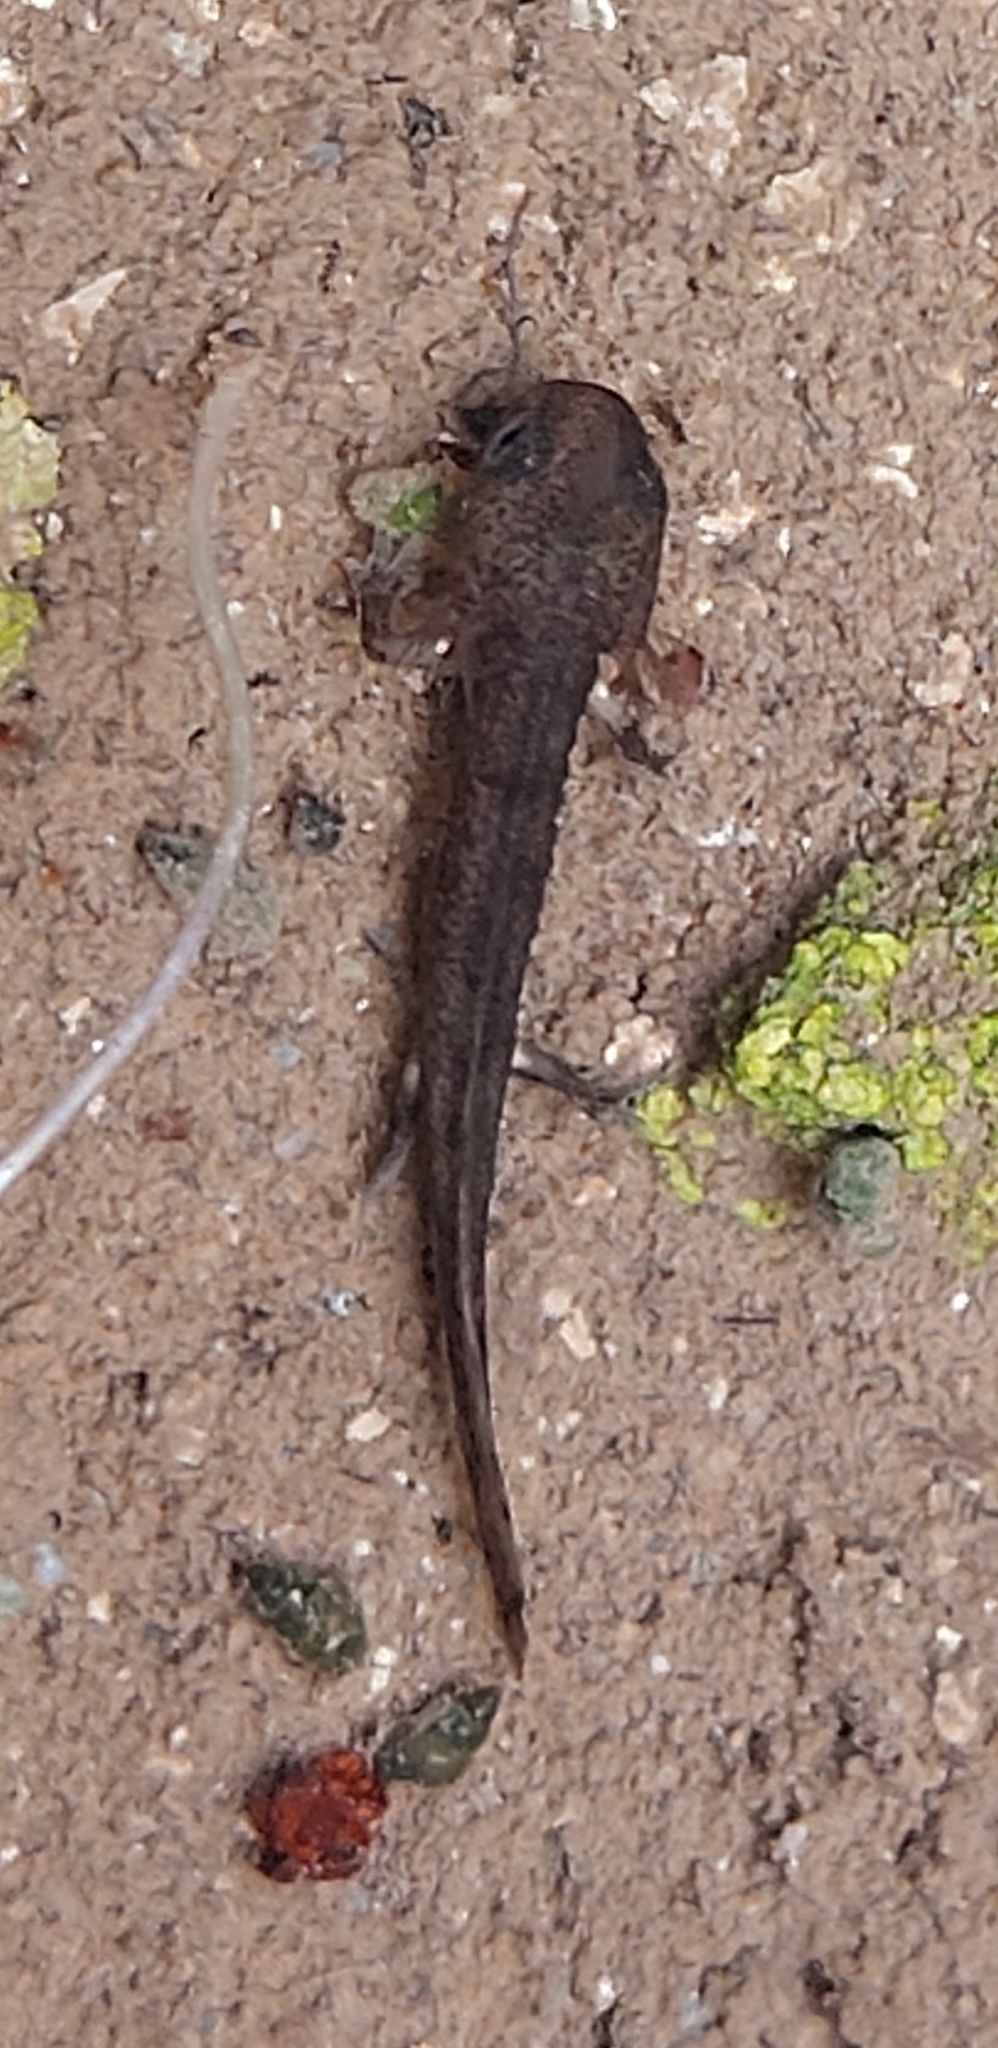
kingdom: Animalia
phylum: Chordata
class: Amphibia
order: Caudata
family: Salamandridae
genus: Salamandra
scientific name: Salamandra salamandra
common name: Fire salamander
